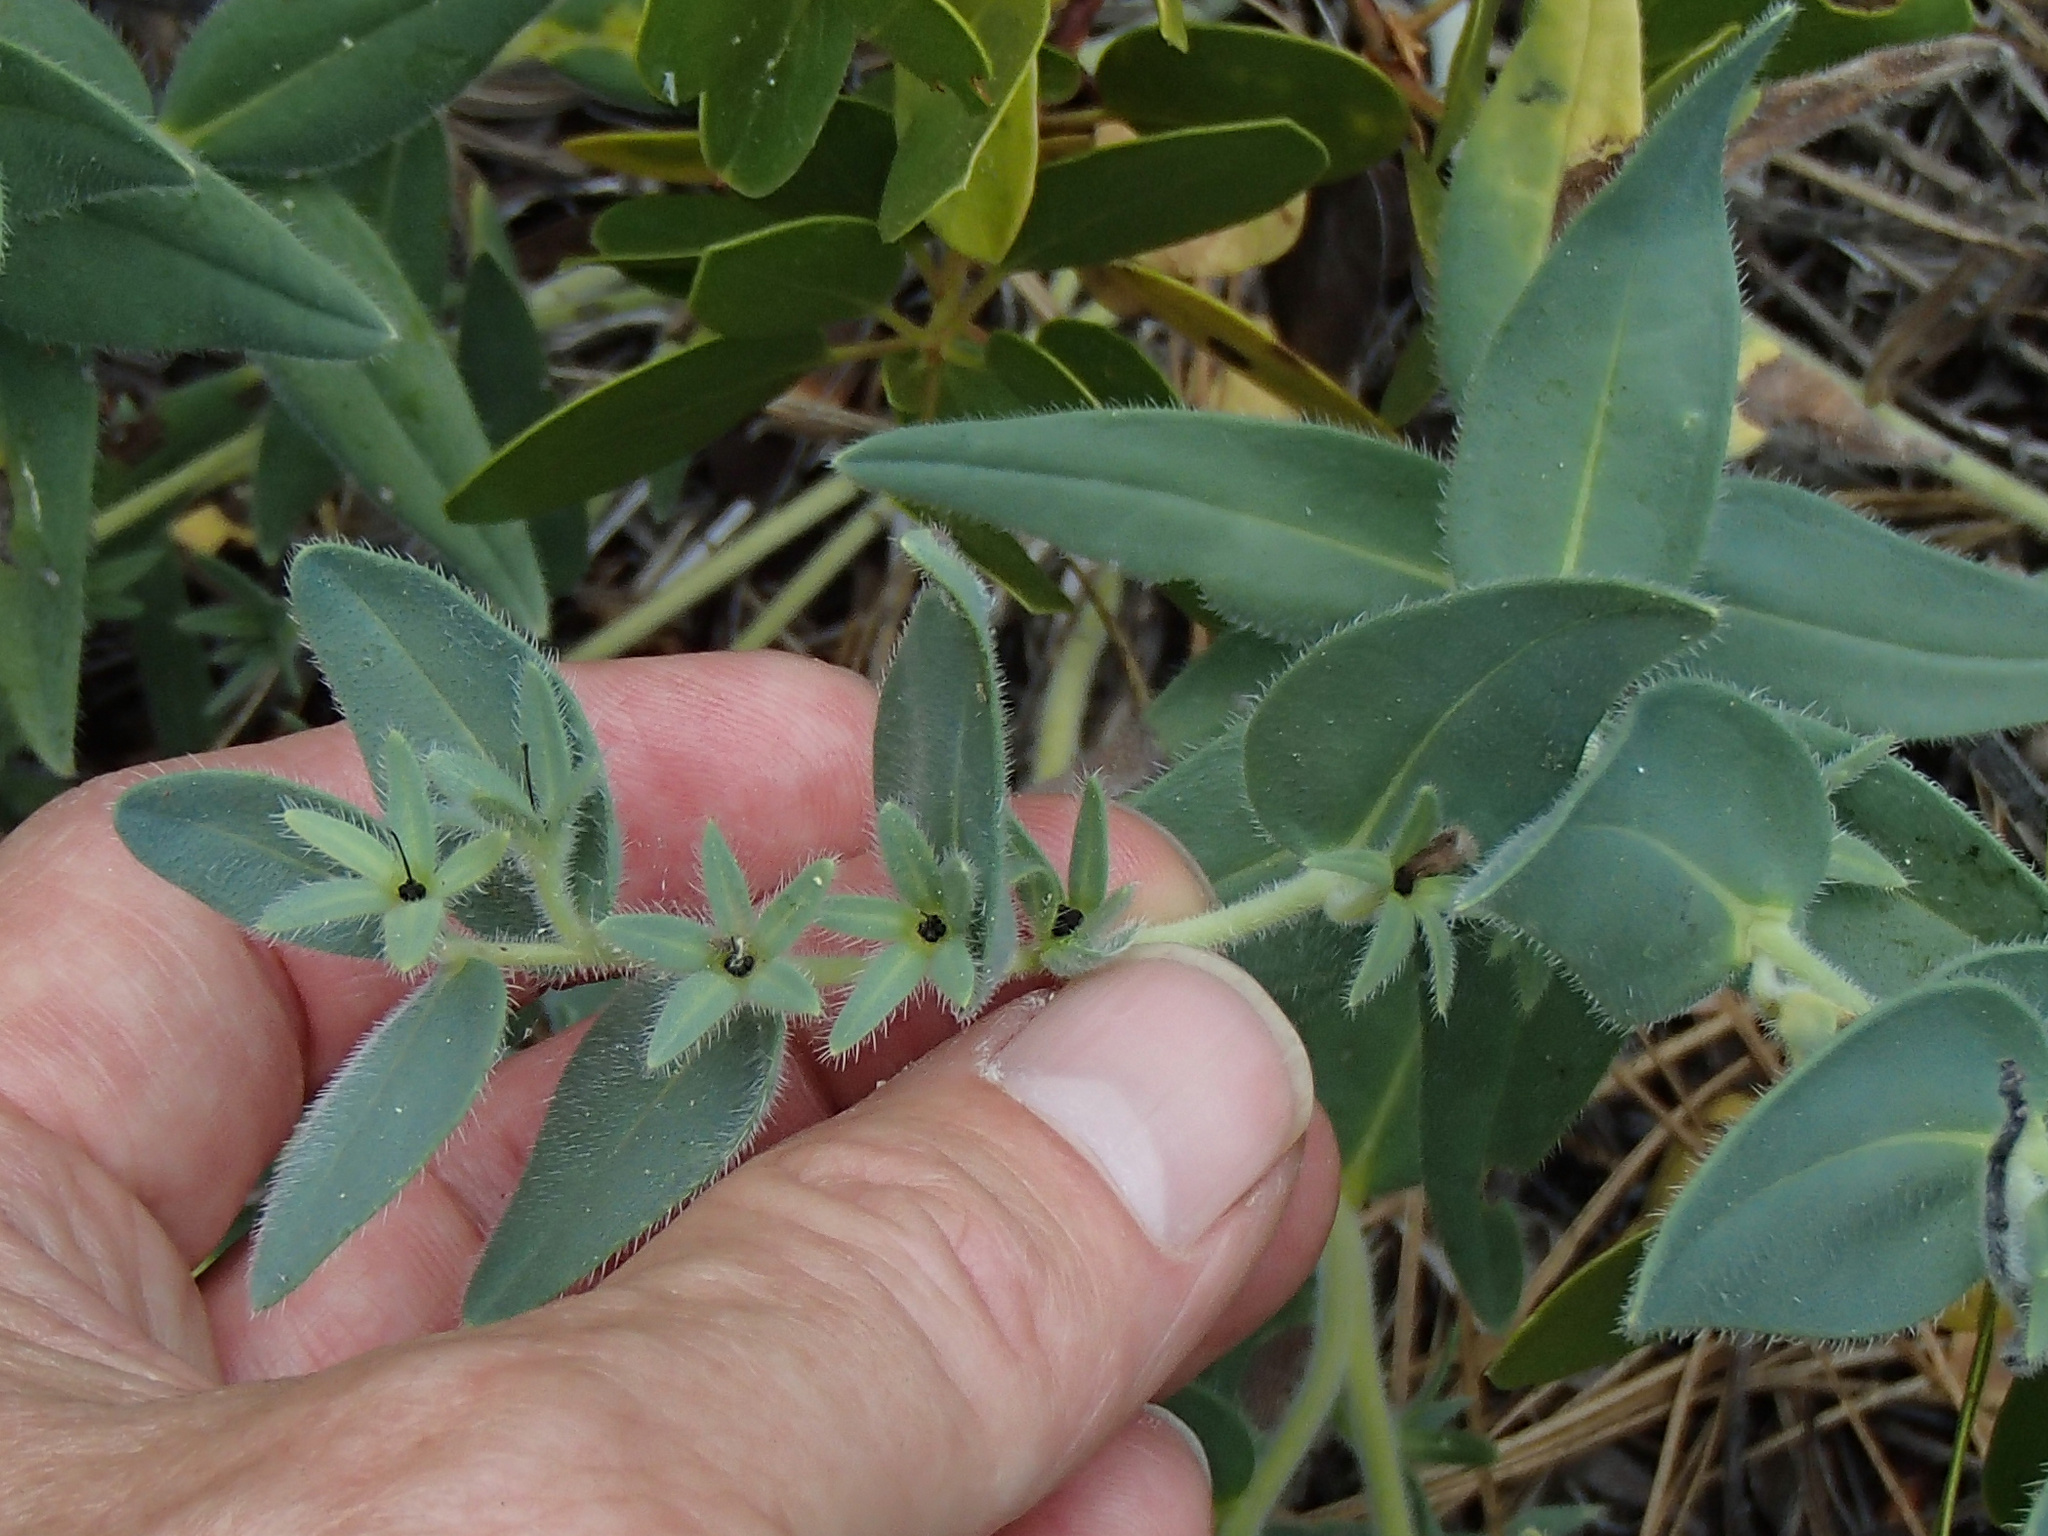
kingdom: Plantae
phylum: Tracheophyta
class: Magnoliopsida
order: Boraginales
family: Boraginaceae
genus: Lithospermum
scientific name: Lithospermum californicum
